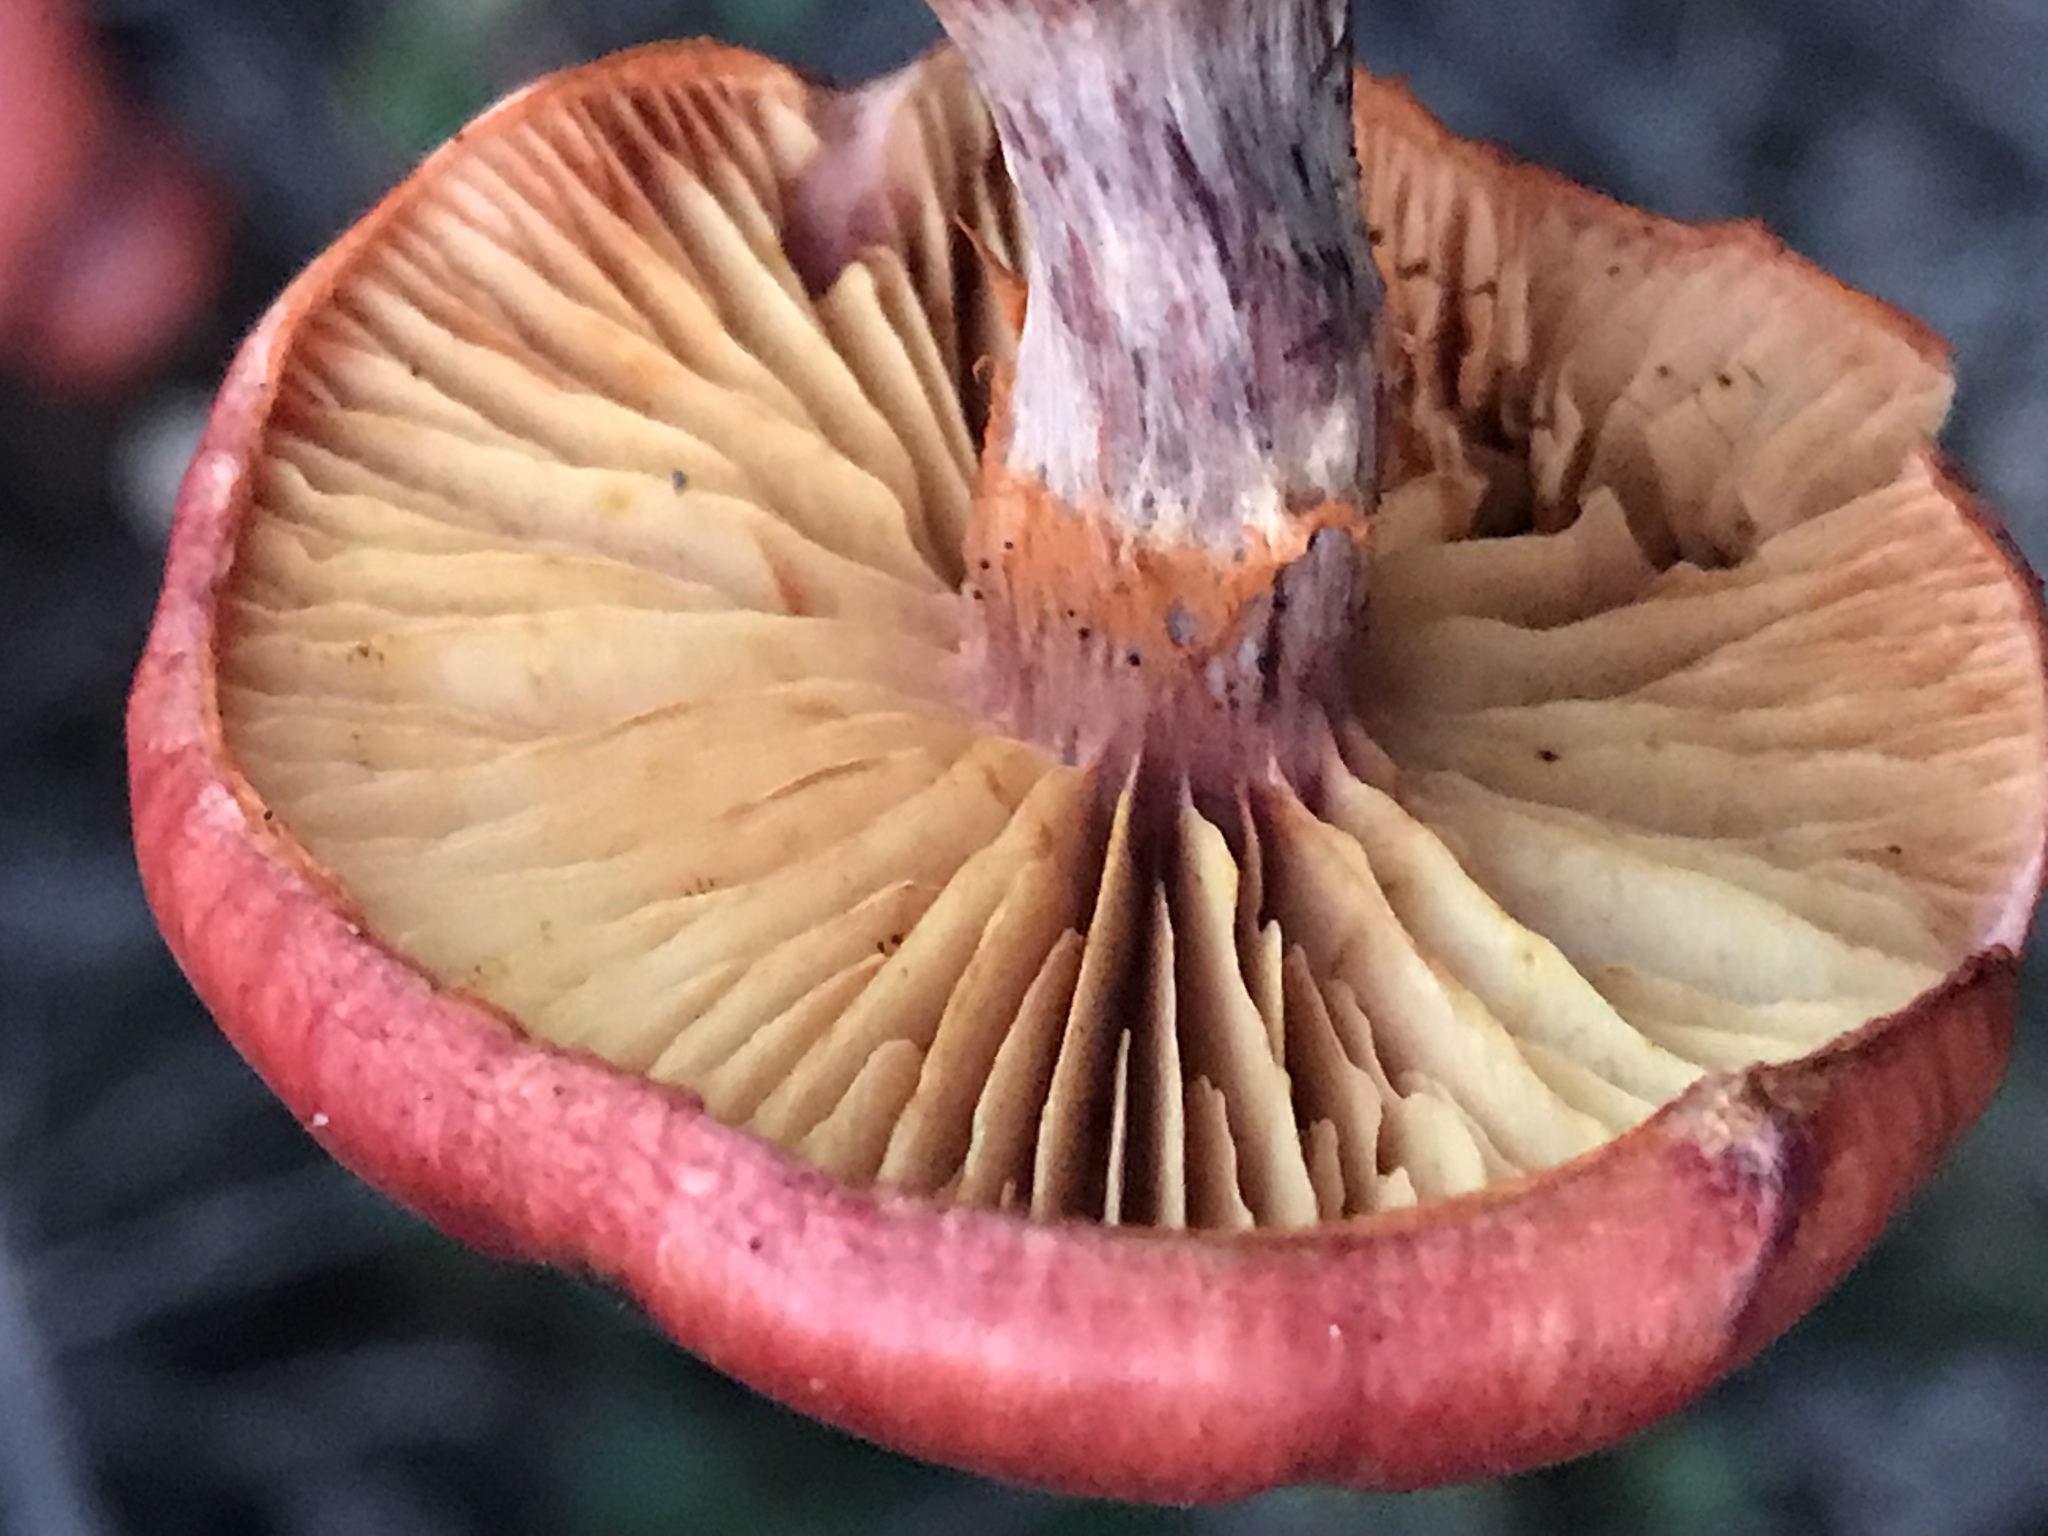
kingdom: Fungi
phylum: Basidiomycota
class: Agaricomycetes
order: Agaricales
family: Hymenogastraceae
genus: Gymnopilus
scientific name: Gymnopilus luteofolius
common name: Yellow-gilled gymnopilus
